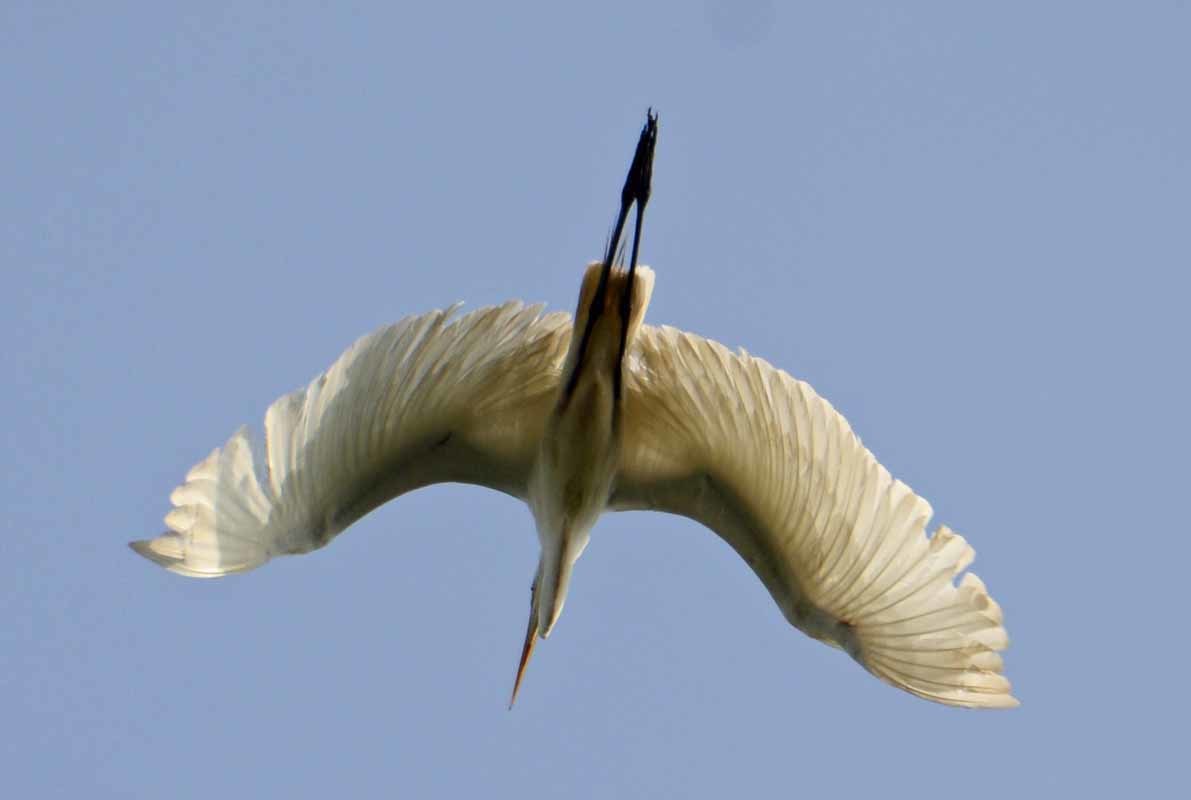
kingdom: Animalia
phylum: Chordata
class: Aves
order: Pelecaniformes
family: Ardeidae
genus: Ardea
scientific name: Ardea alba
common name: Great egret
